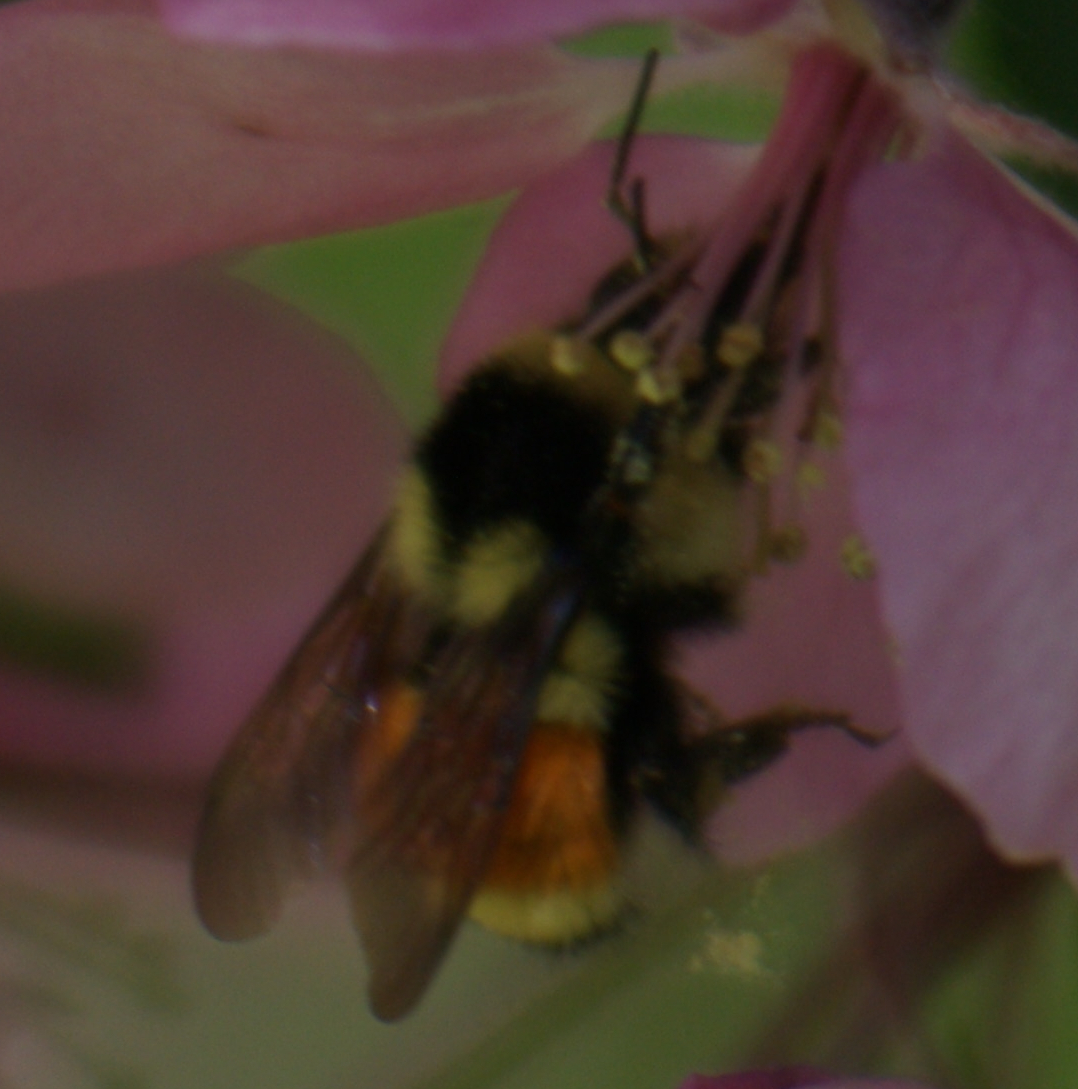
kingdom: Animalia
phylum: Arthropoda
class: Insecta
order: Hymenoptera
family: Apidae
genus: Bombus
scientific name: Bombus ternarius
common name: Tri-colored bumble bee
